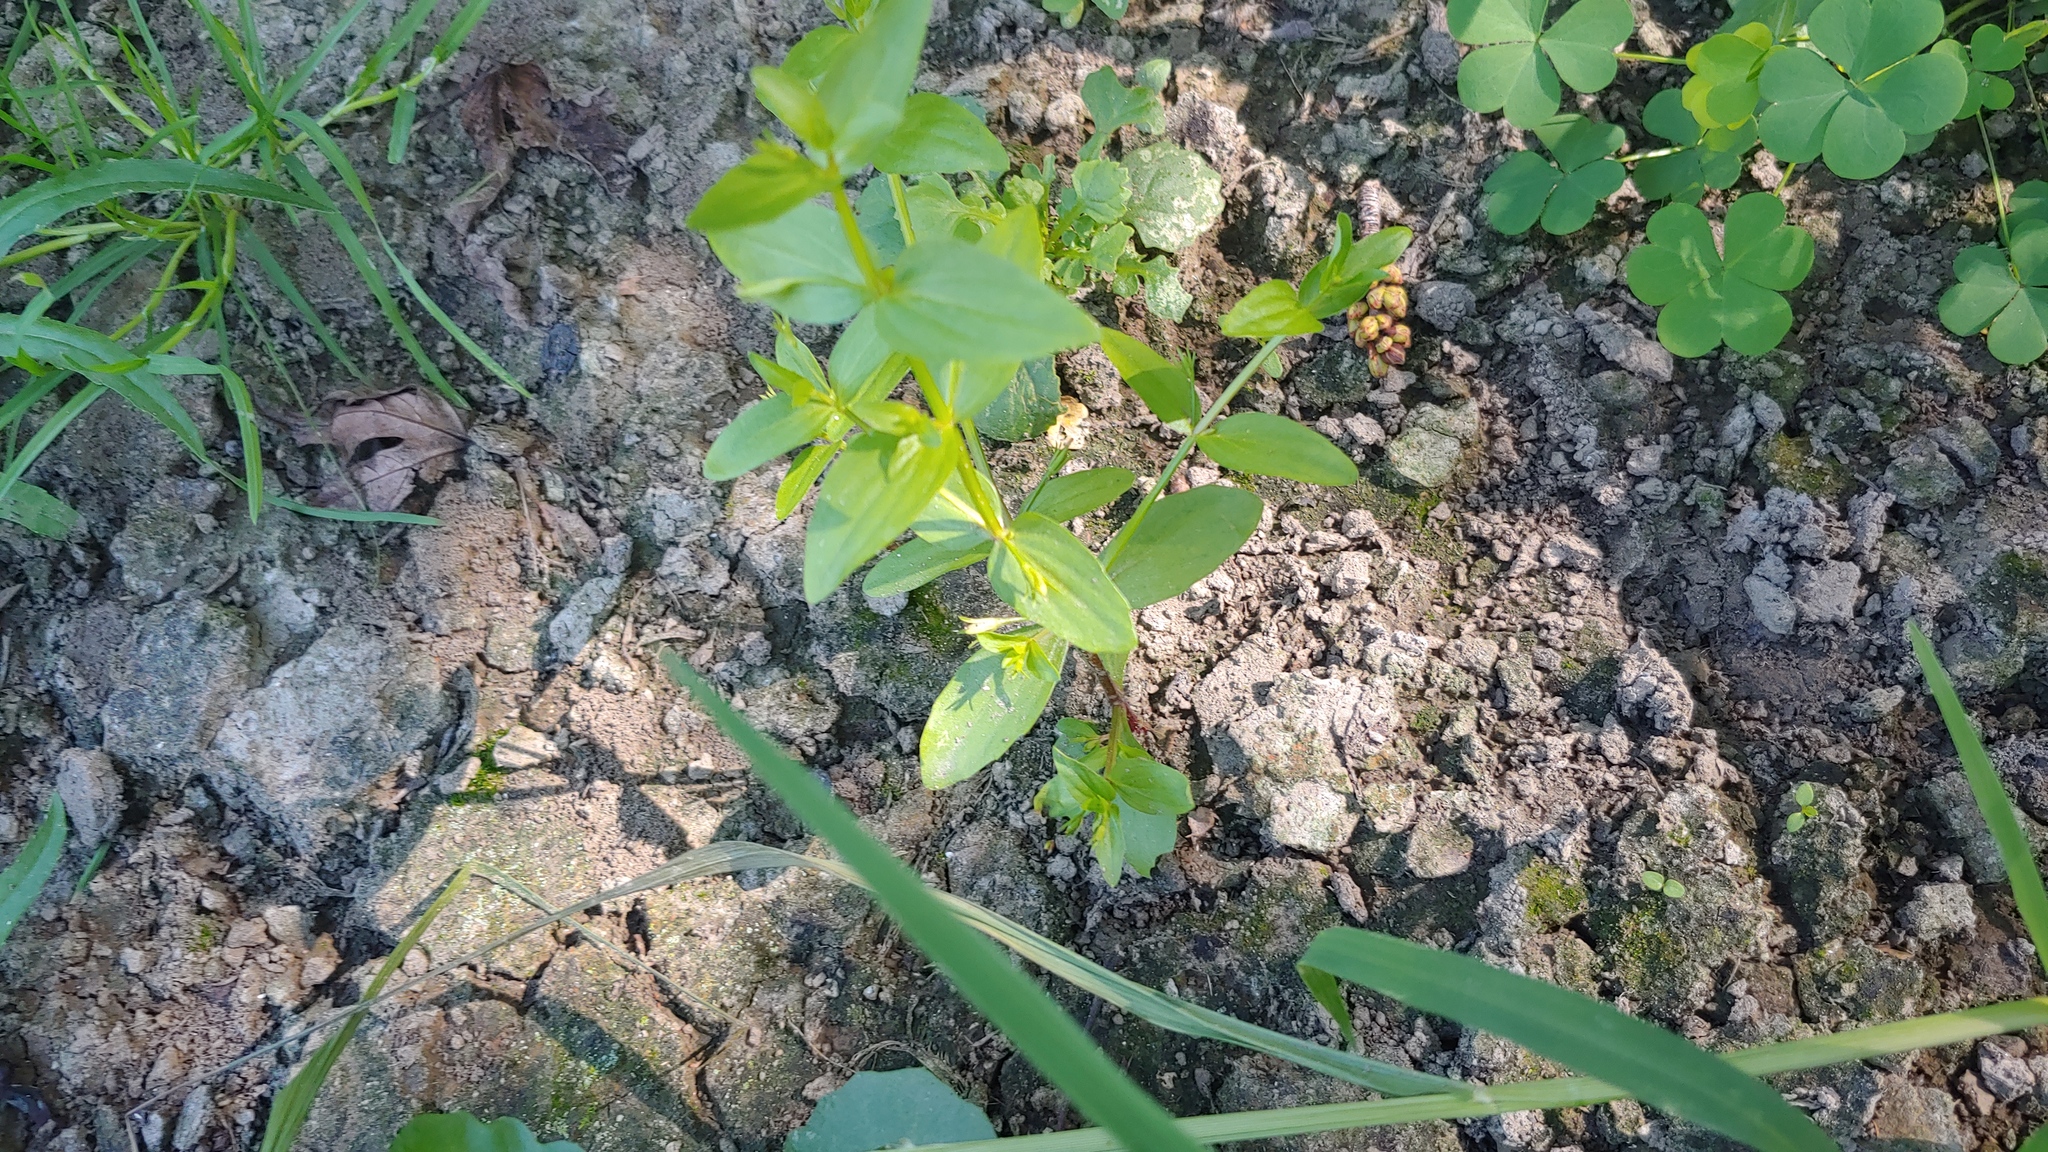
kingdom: Plantae
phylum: Tracheophyta
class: Magnoliopsida
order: Lamiales
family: Linderniaceae
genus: Lindernia
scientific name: Lindernia dubia
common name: Annual false pimpernel
